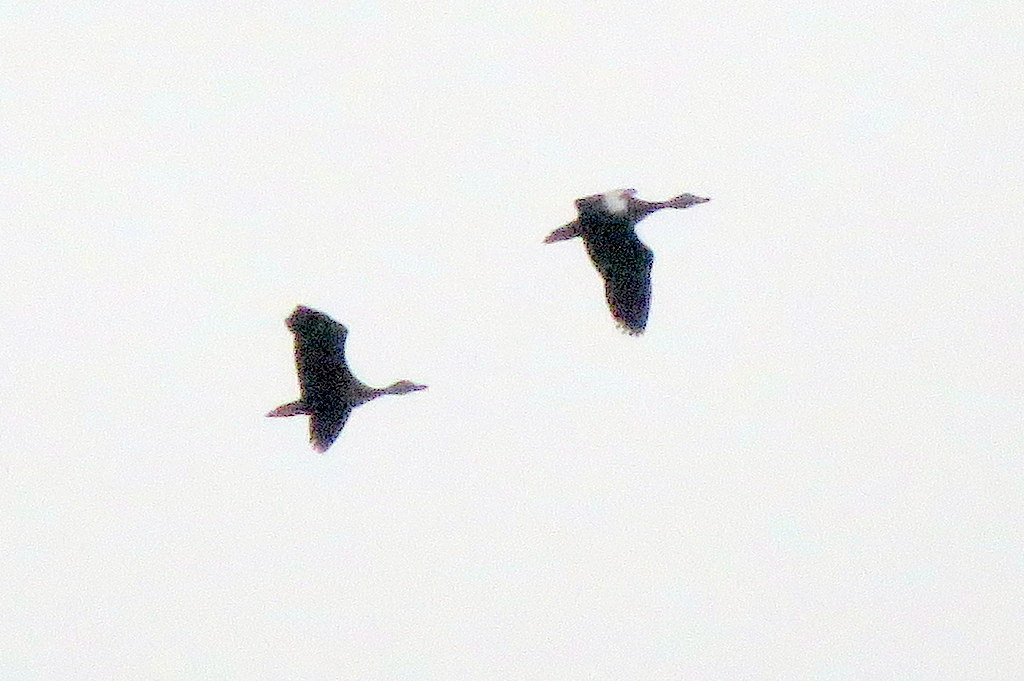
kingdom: Animalia
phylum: Chordata
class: Aves
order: Anseriformes
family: Anatidae
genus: Dendrocygna
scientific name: Dendrocygna autumnalis
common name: Black-bellied whistling duck
